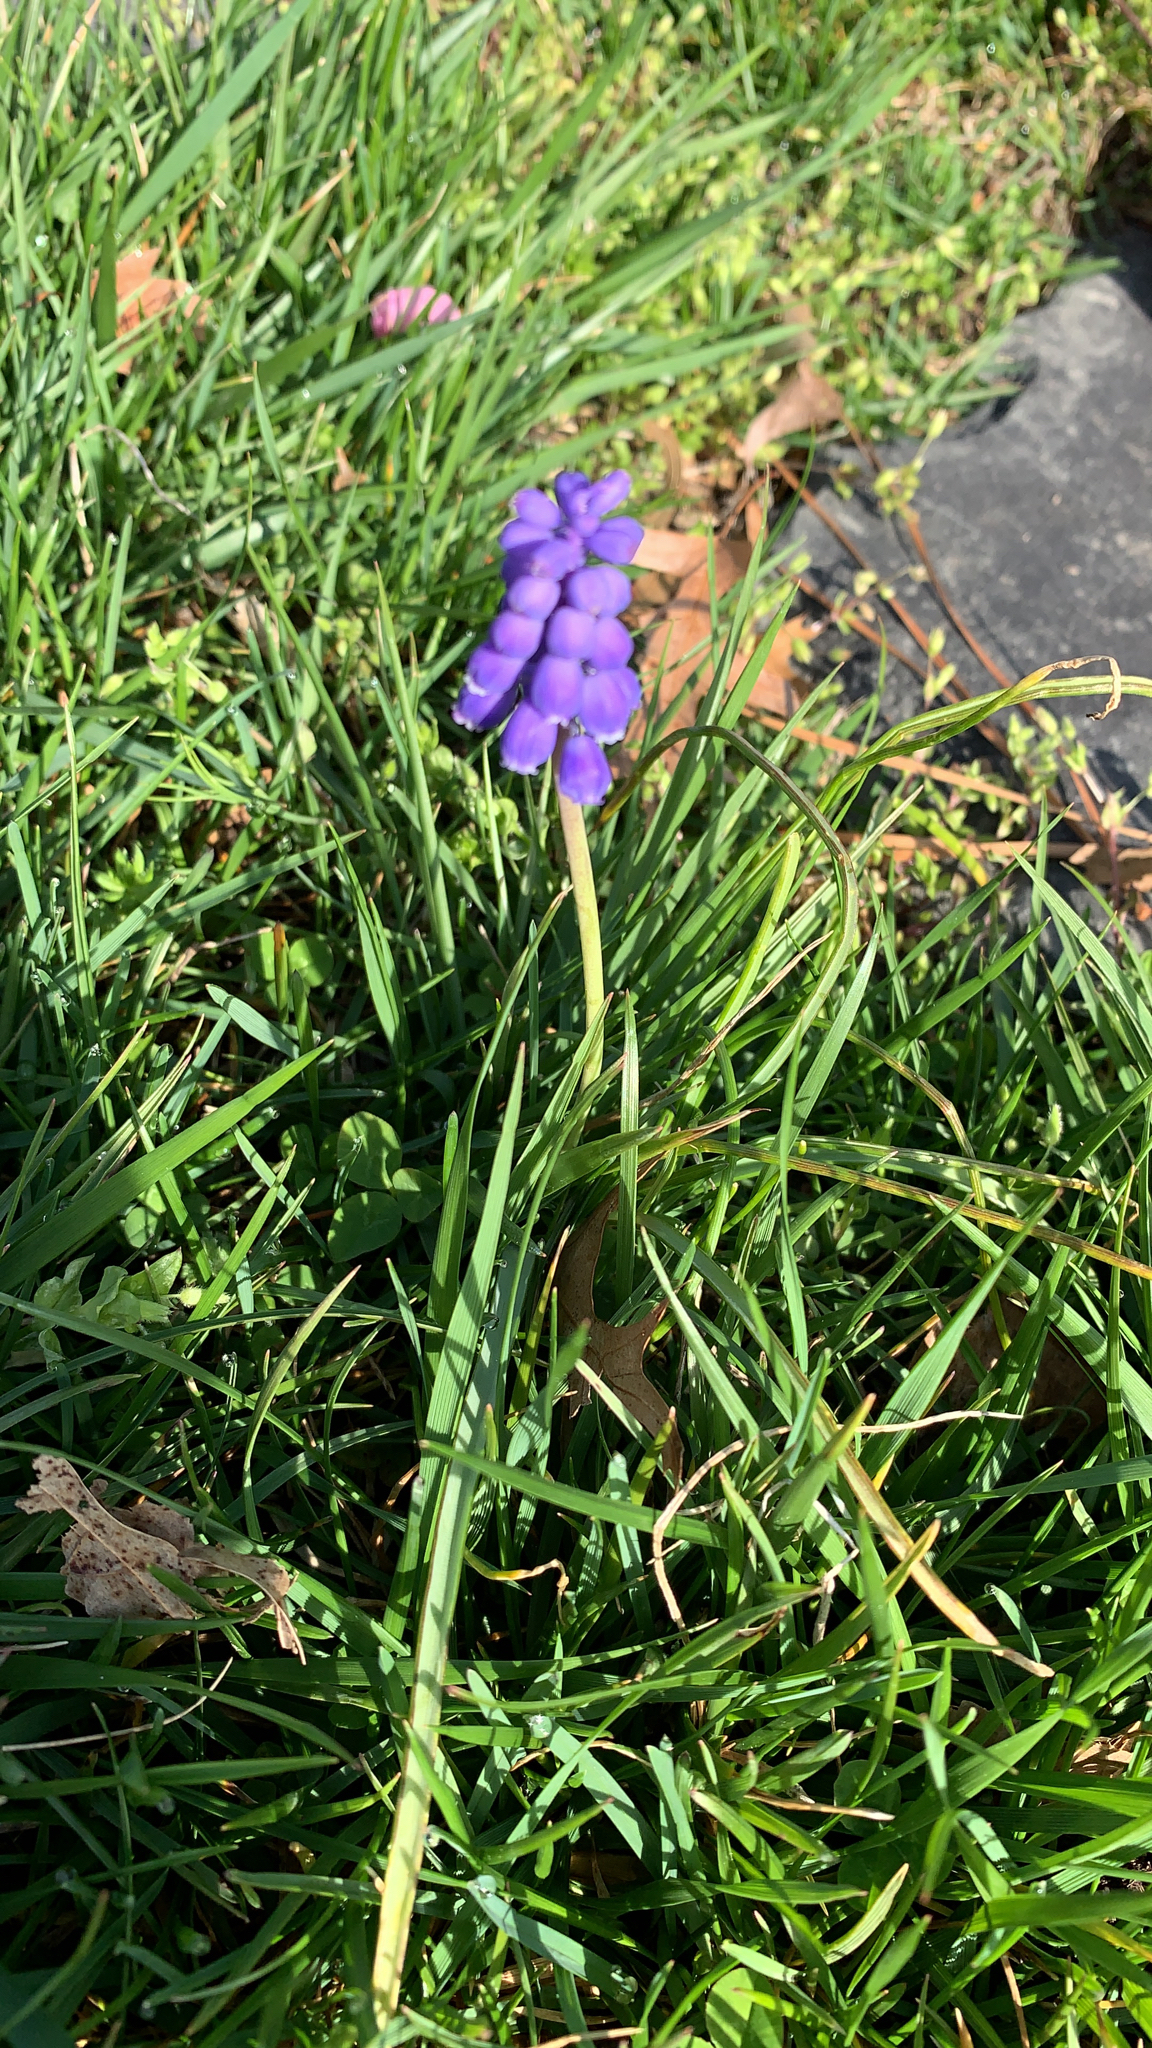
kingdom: Plantae
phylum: Tracheophyta
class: Liliopsida
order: Asparagales
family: Asparagaceae
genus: Muscari
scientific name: Muscari botryoides
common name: Compact grape-hyacinth
